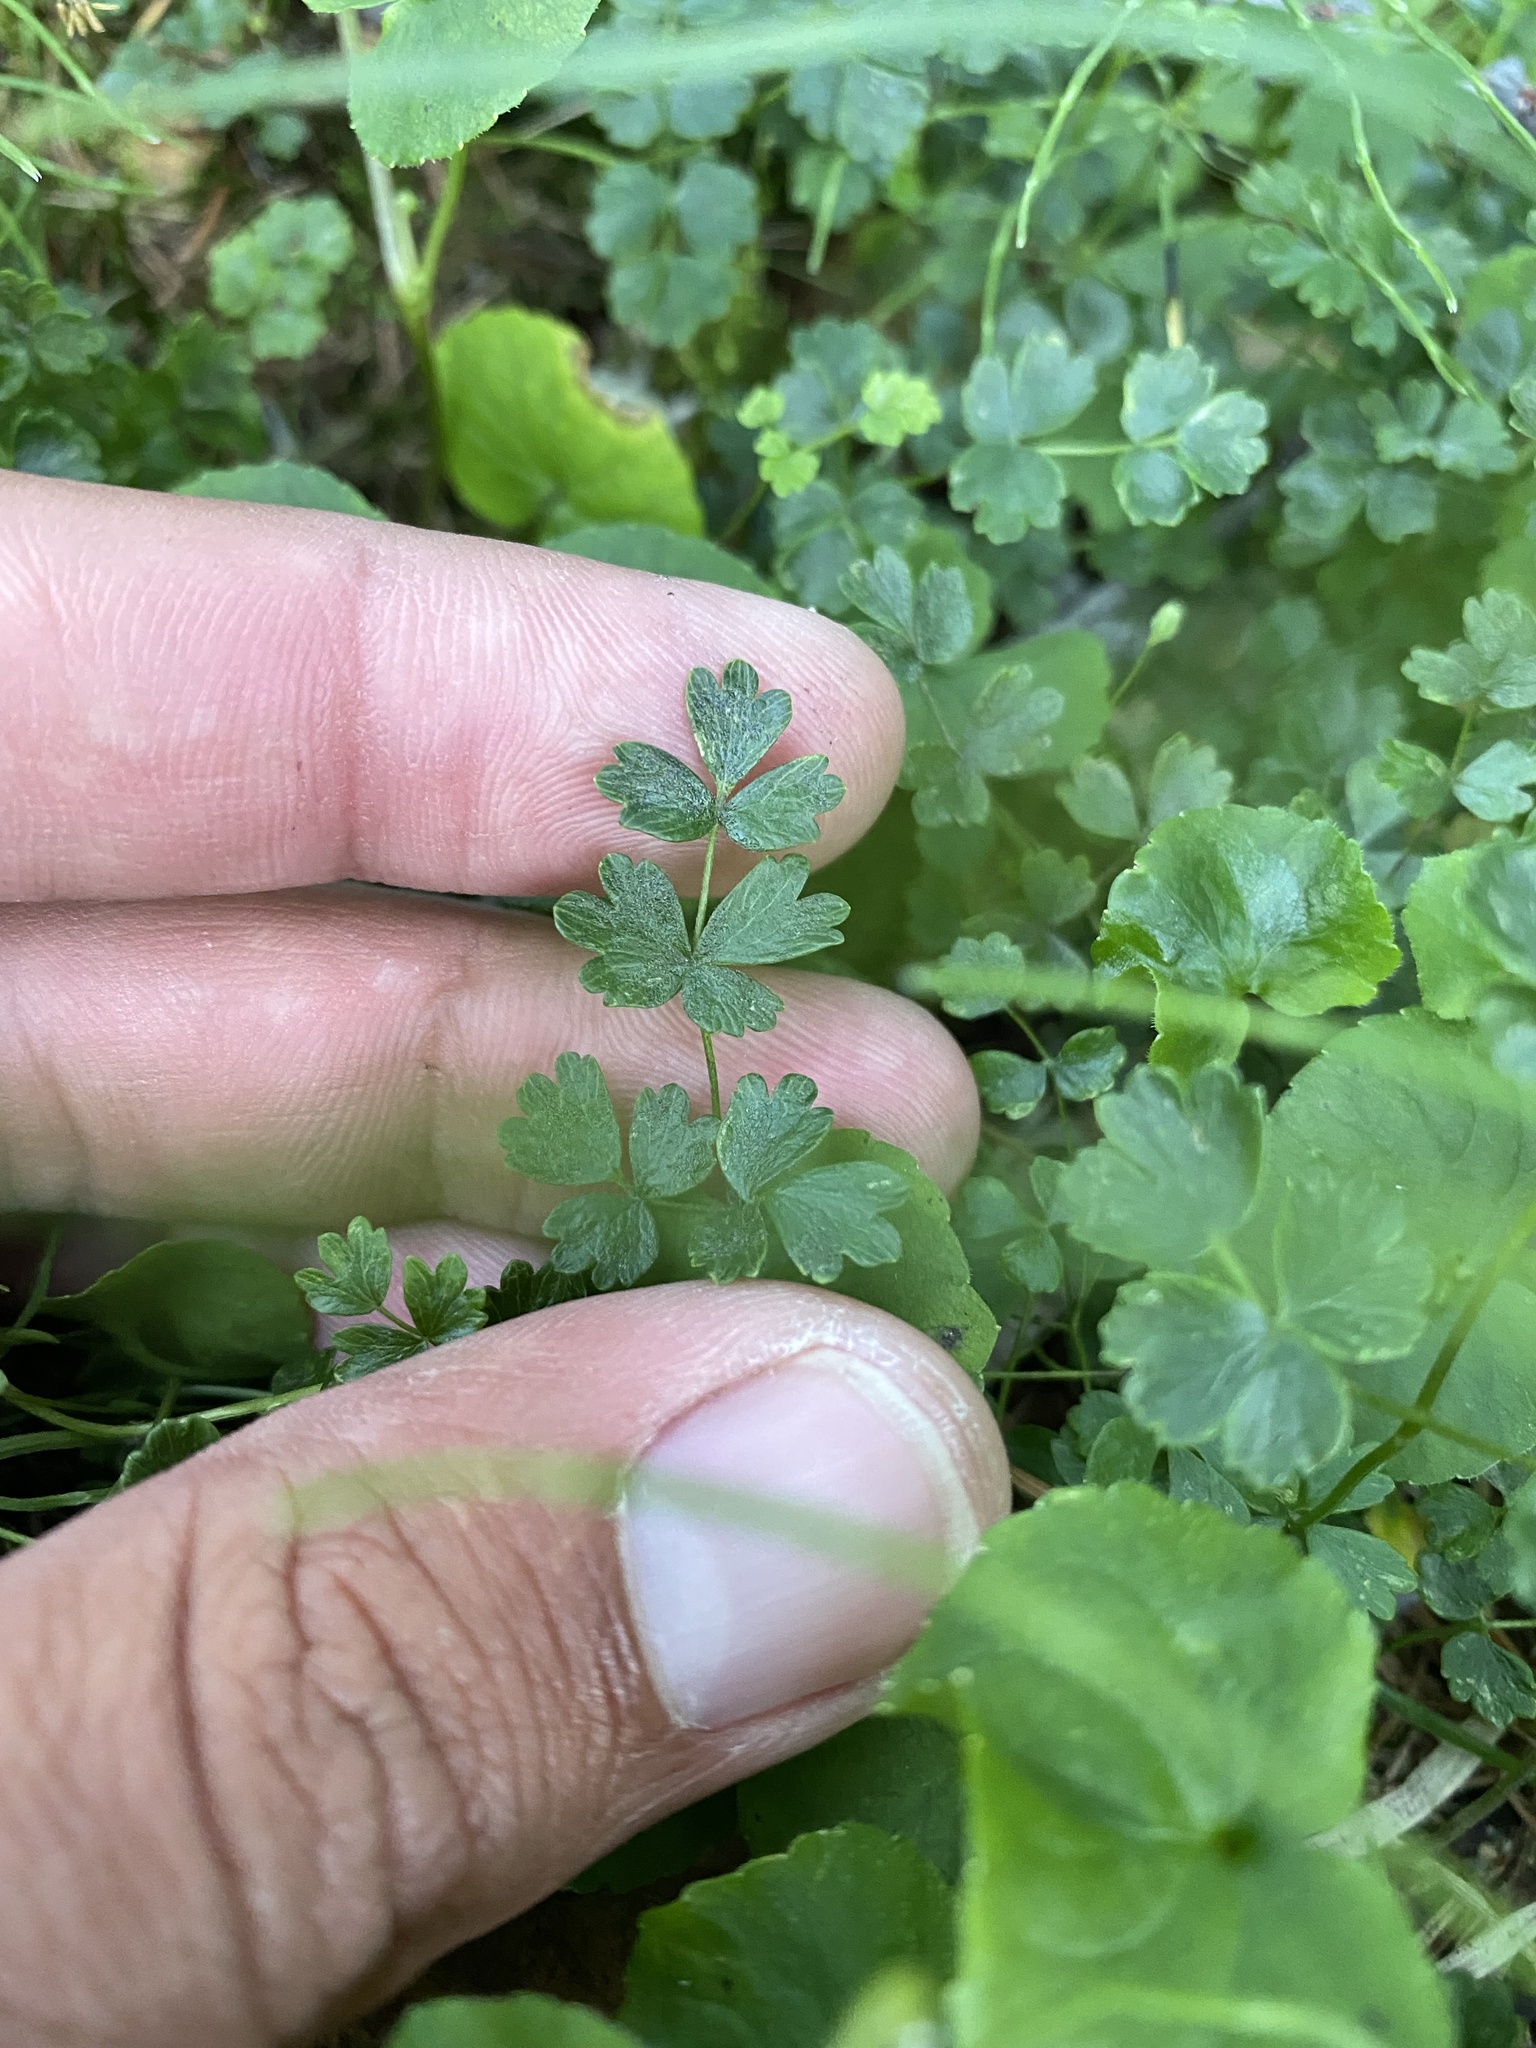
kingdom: Plantae
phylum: Tracheophyta
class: Magnoliopsida
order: Ranunculales
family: Ranunculaceae
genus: Thalictrum
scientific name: Thalictrum alpinum
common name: Alpine meadow-rue
